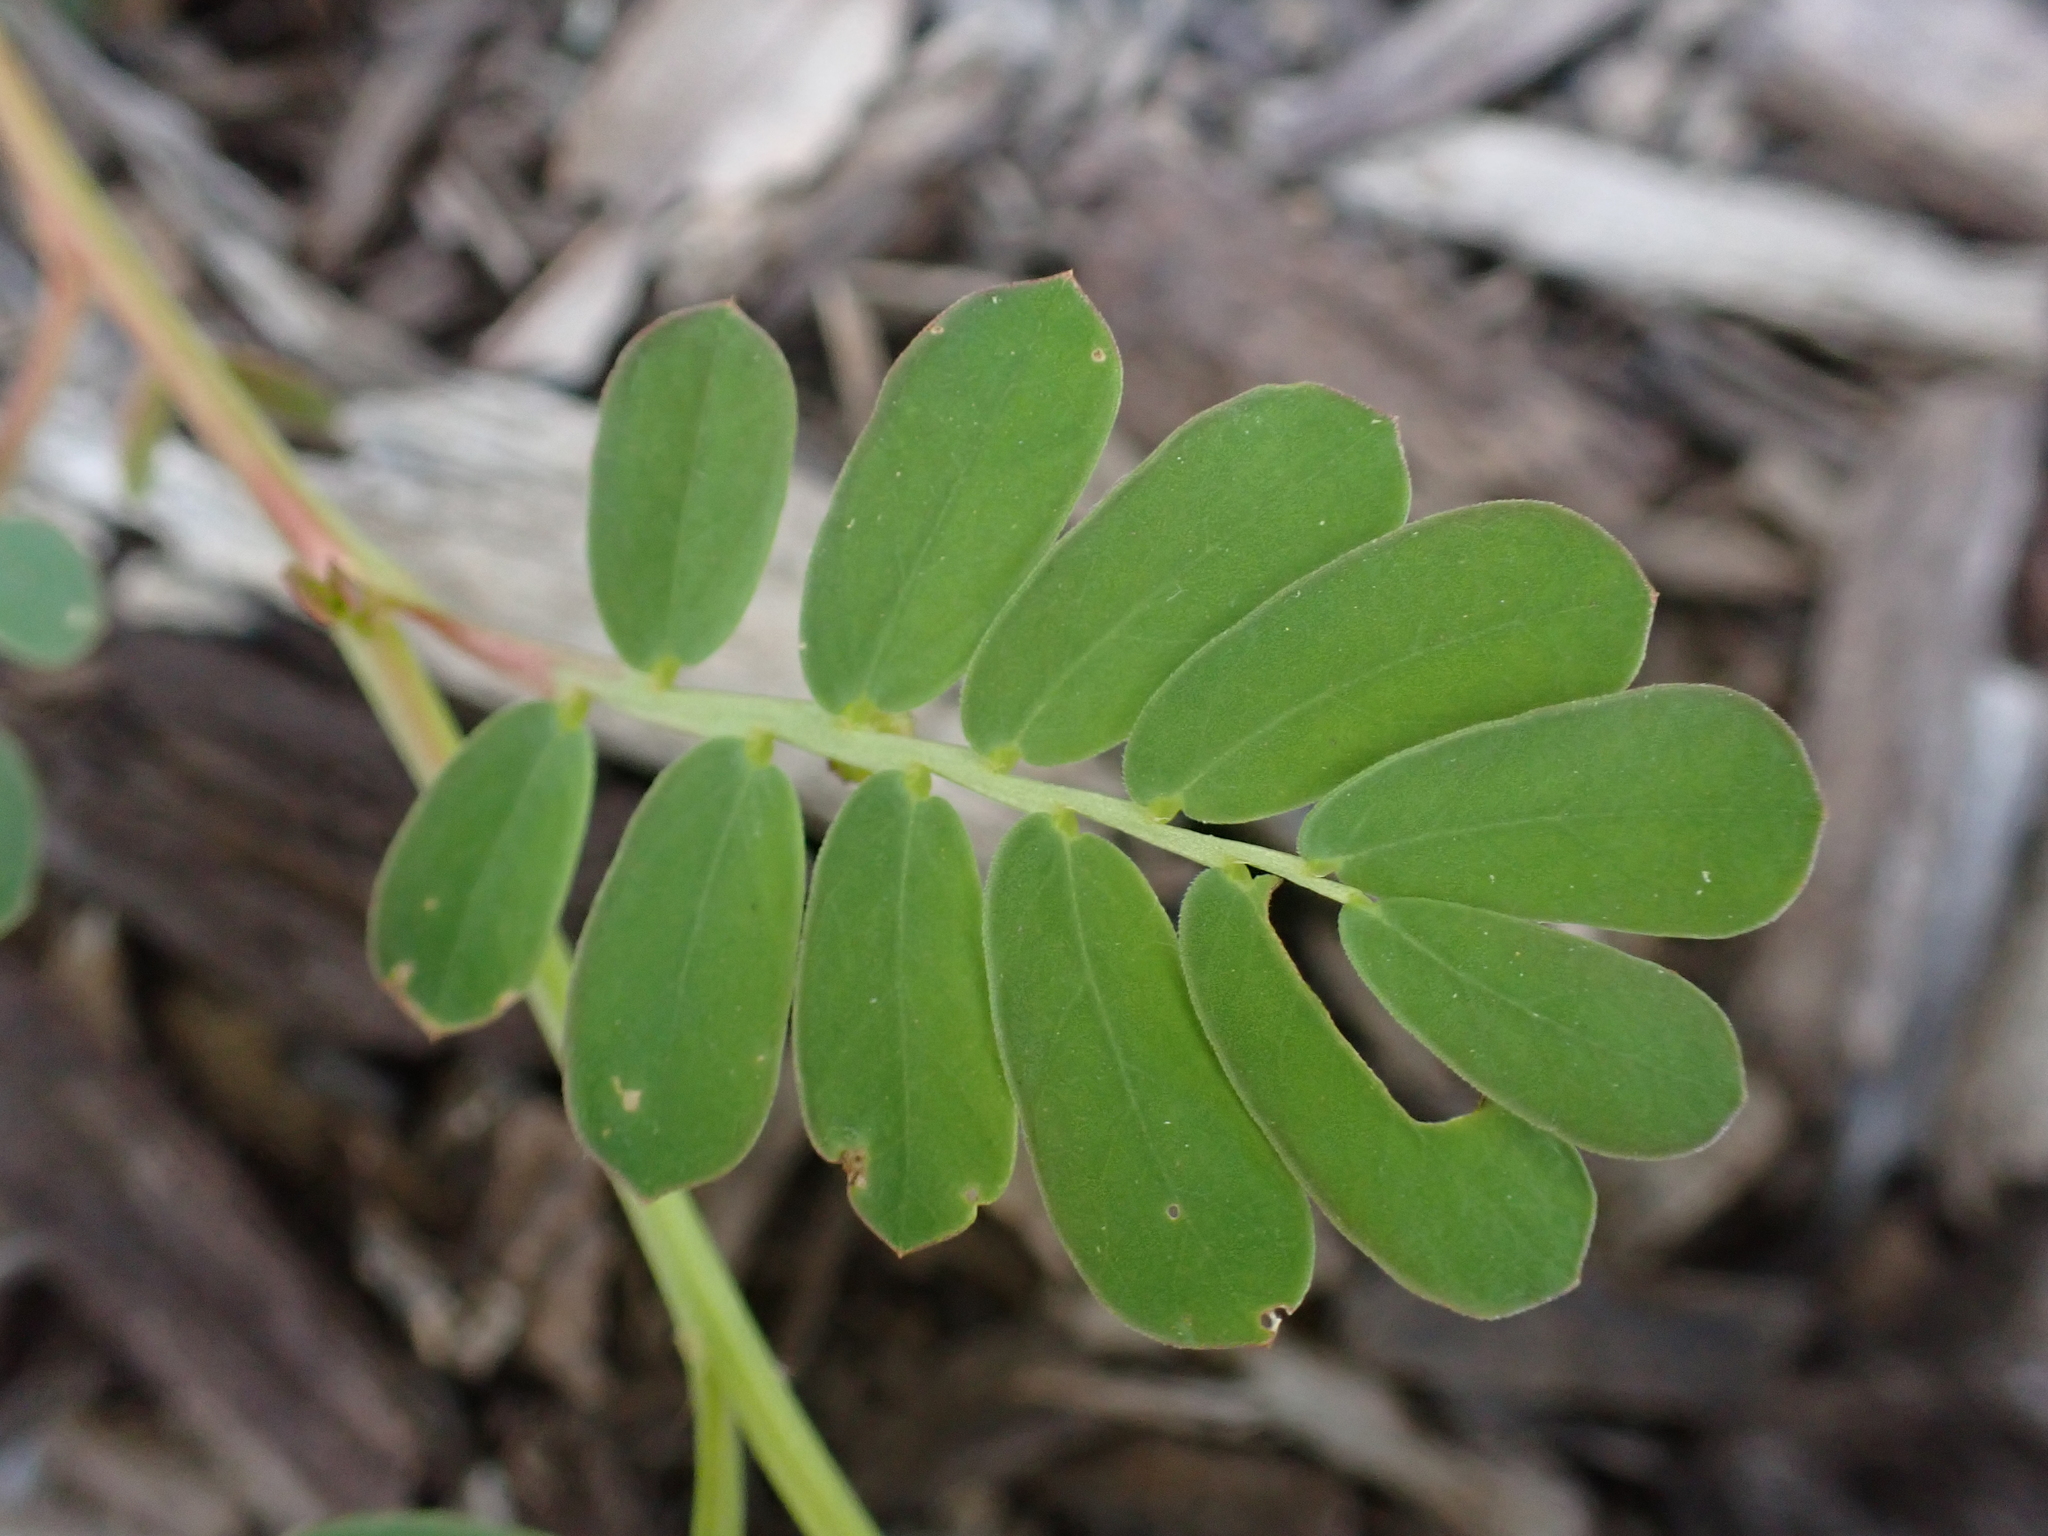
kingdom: Plantae
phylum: Tracheophyta
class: Magnoliopsida
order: Malpighiales
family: Phyllanthaceae
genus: Phyllanthus
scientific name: Phyllanthus urinaria
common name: Chamber bitter
